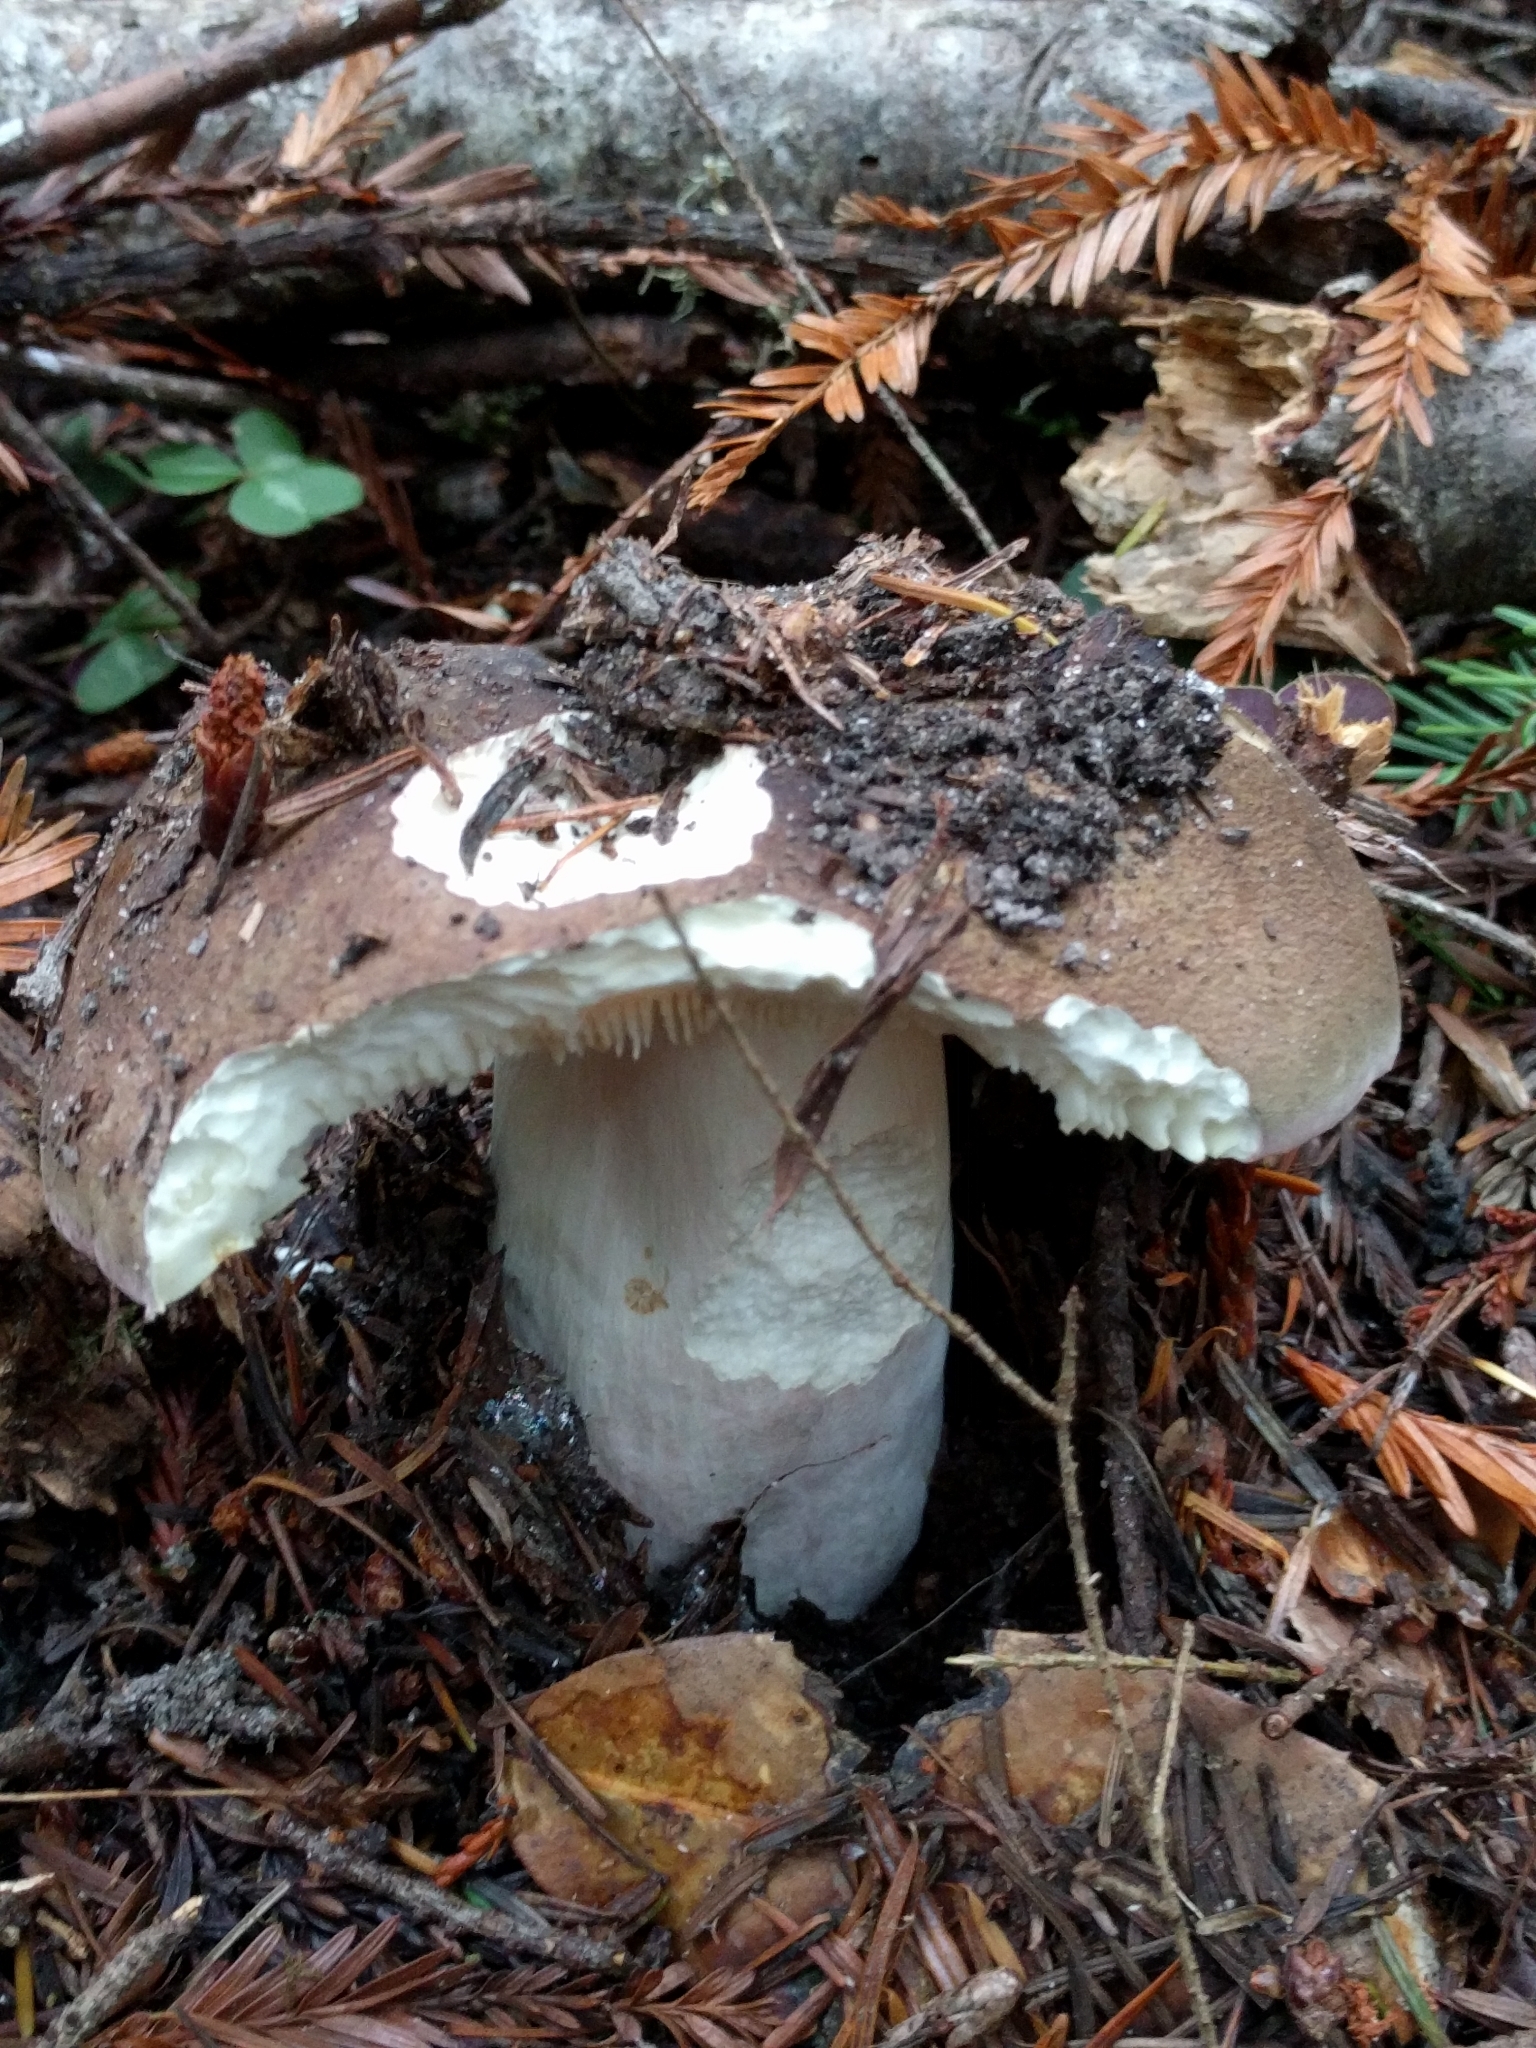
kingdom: Fungi
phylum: Basidiomycota
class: Agaricomycetes
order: Russulales
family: Russulaceae
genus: Russula
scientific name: Russula olivacea
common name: Olive brittlegill
